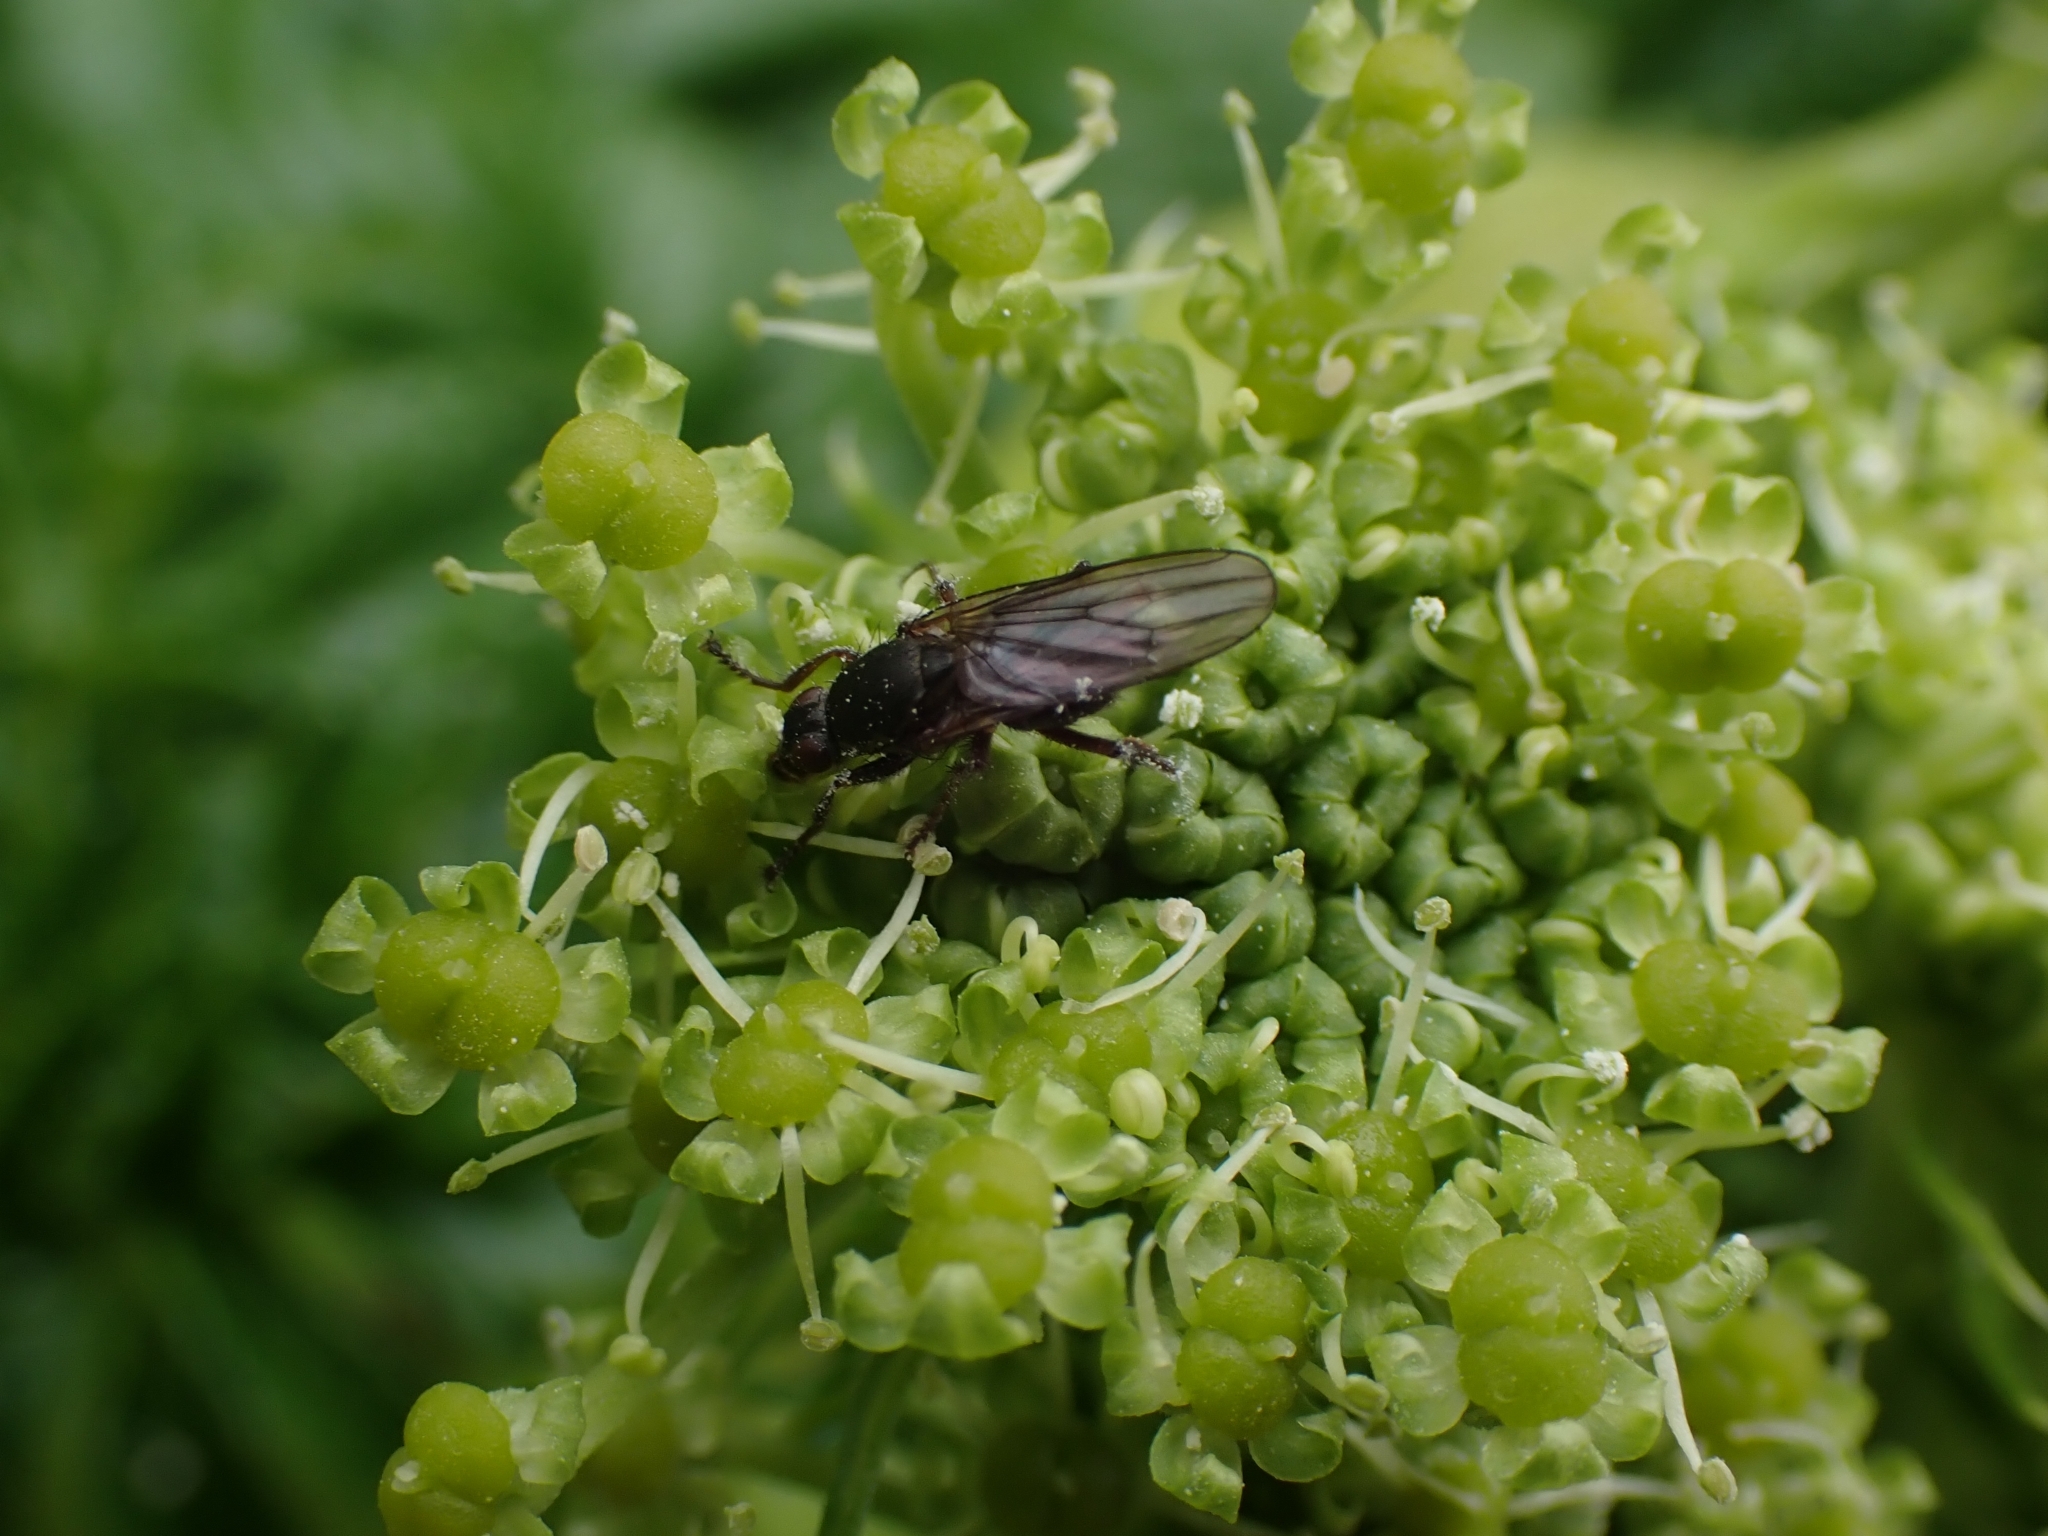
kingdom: Animalia
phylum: Arthropoda
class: Insecta
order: Diptera
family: Coelopidae
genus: Chaetocoelopa
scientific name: Chaetocoelopa littoralis
